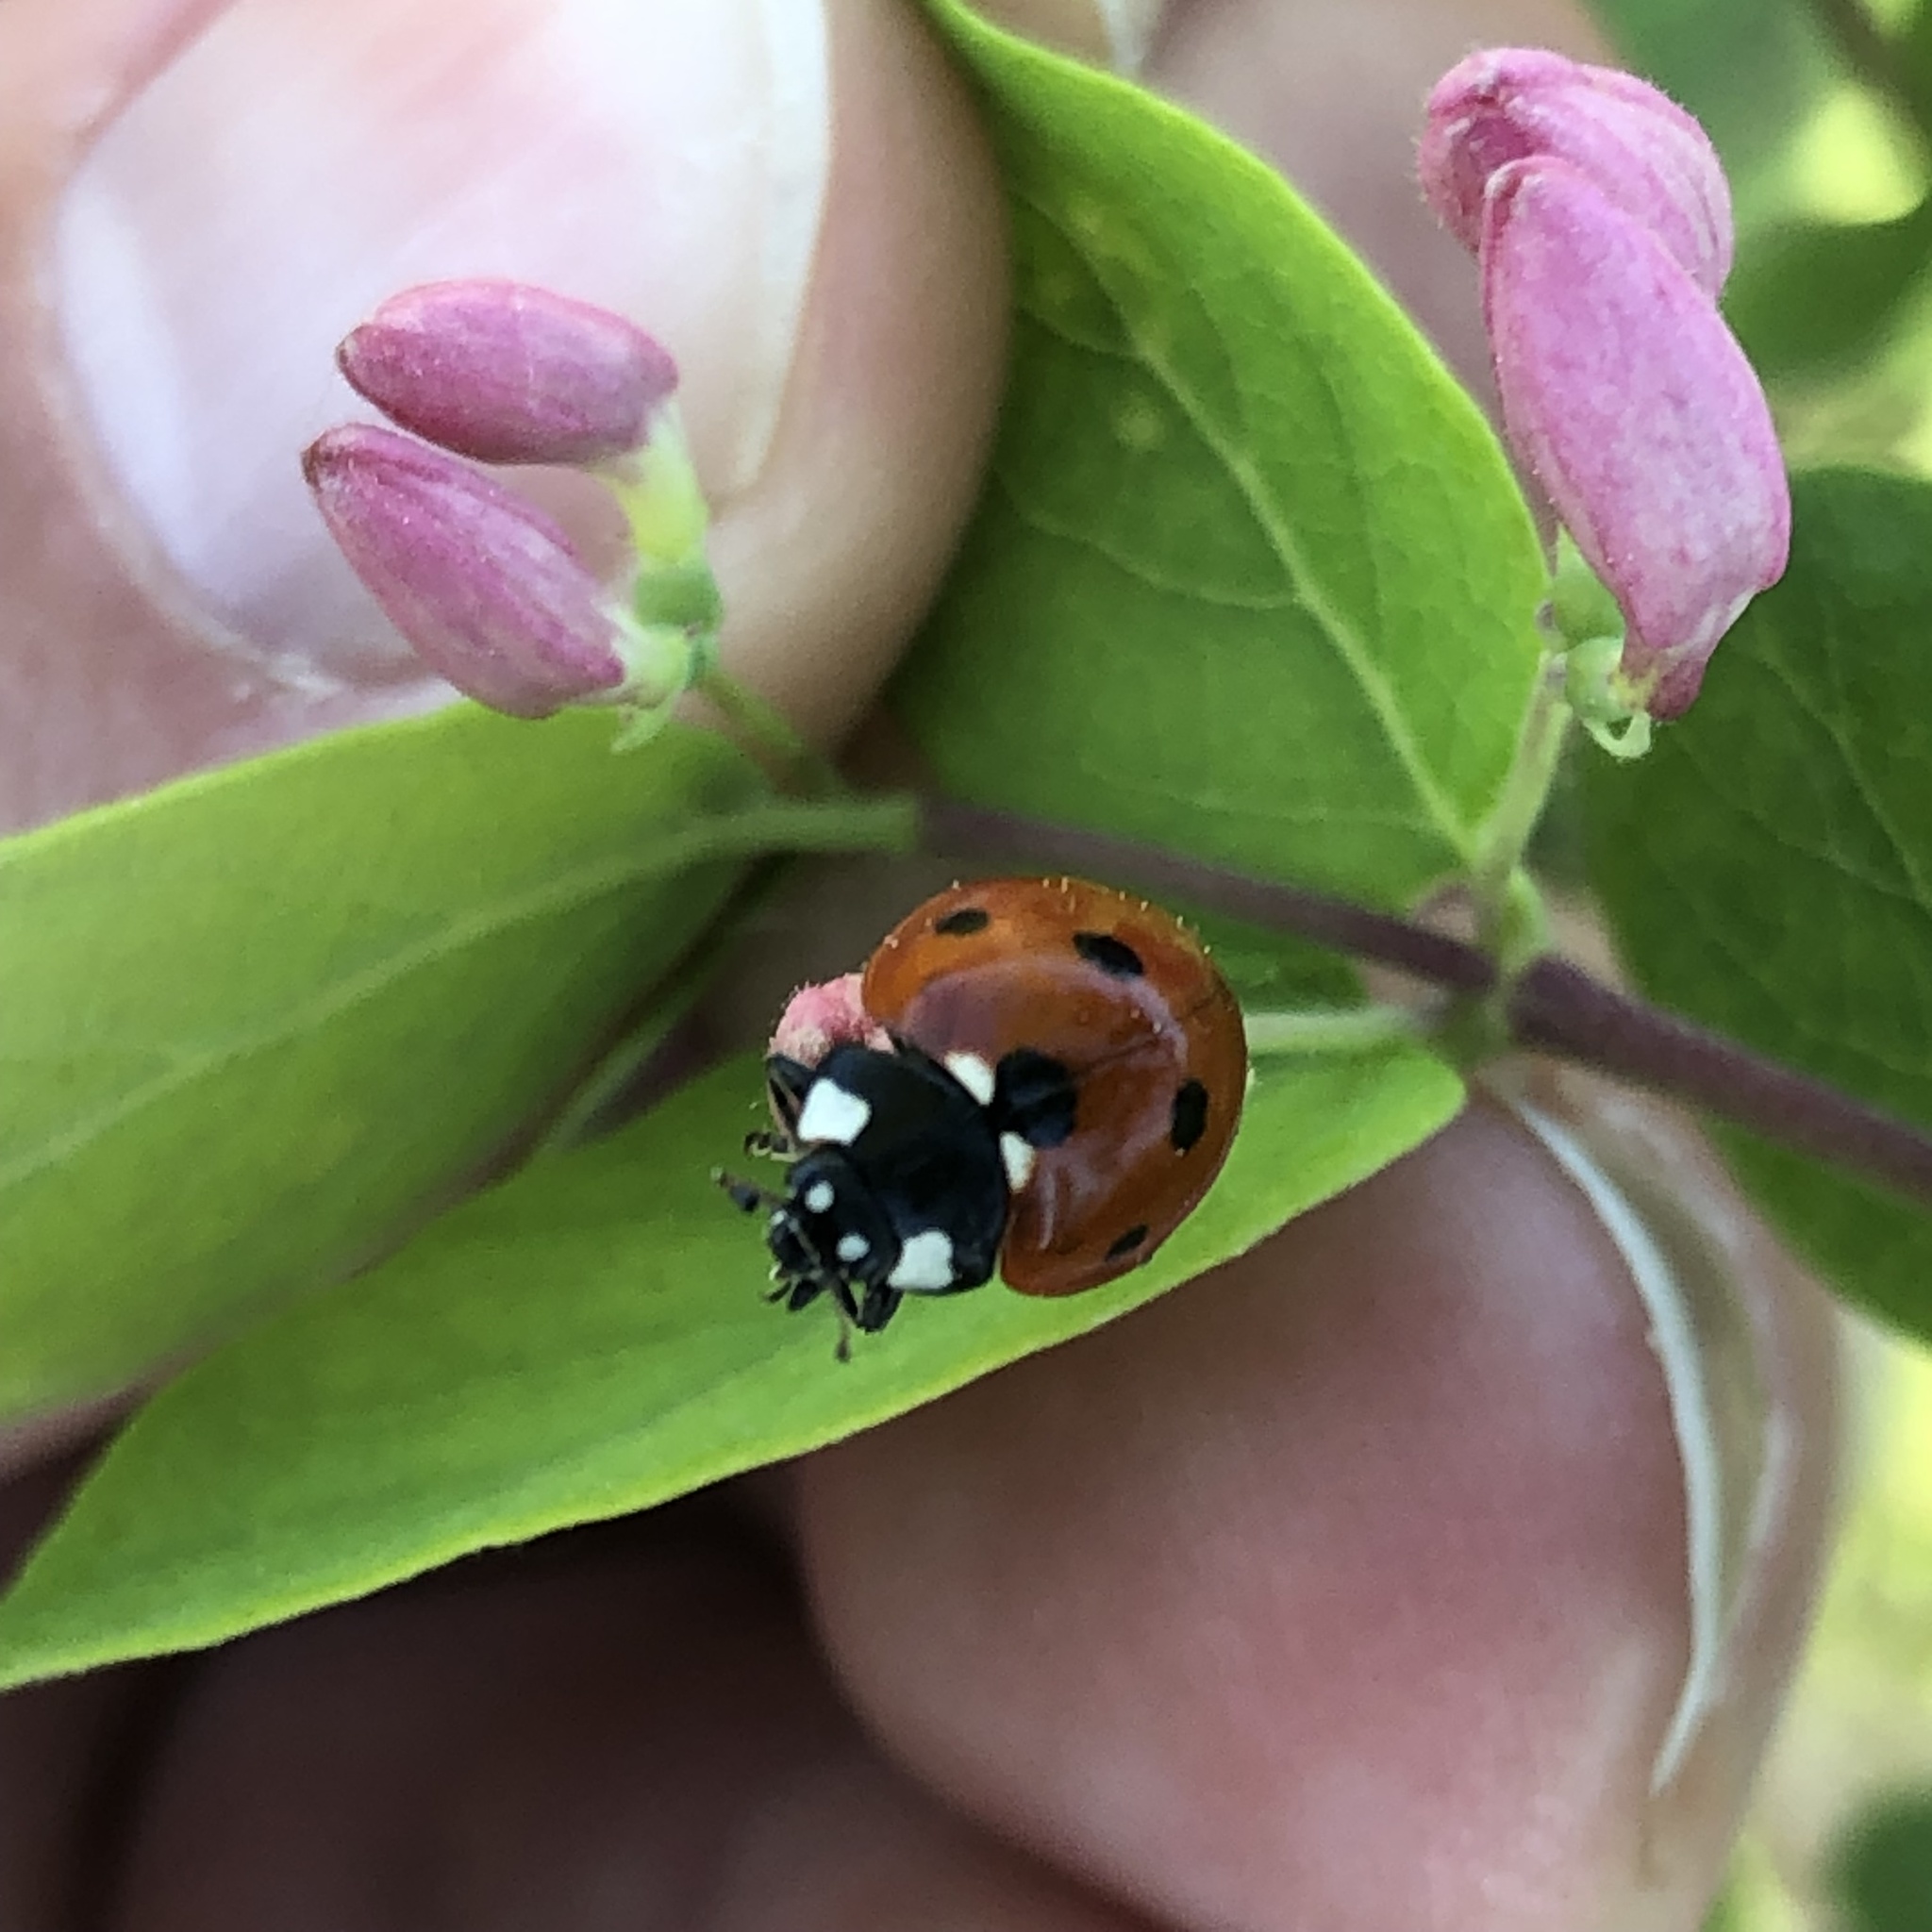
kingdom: Animalia
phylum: Arthropoda
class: Insecta
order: Coleoptera
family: Coccinellidae
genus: Coccinella
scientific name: Coccinella septempunctata
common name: Sevenspotted lady beetle
